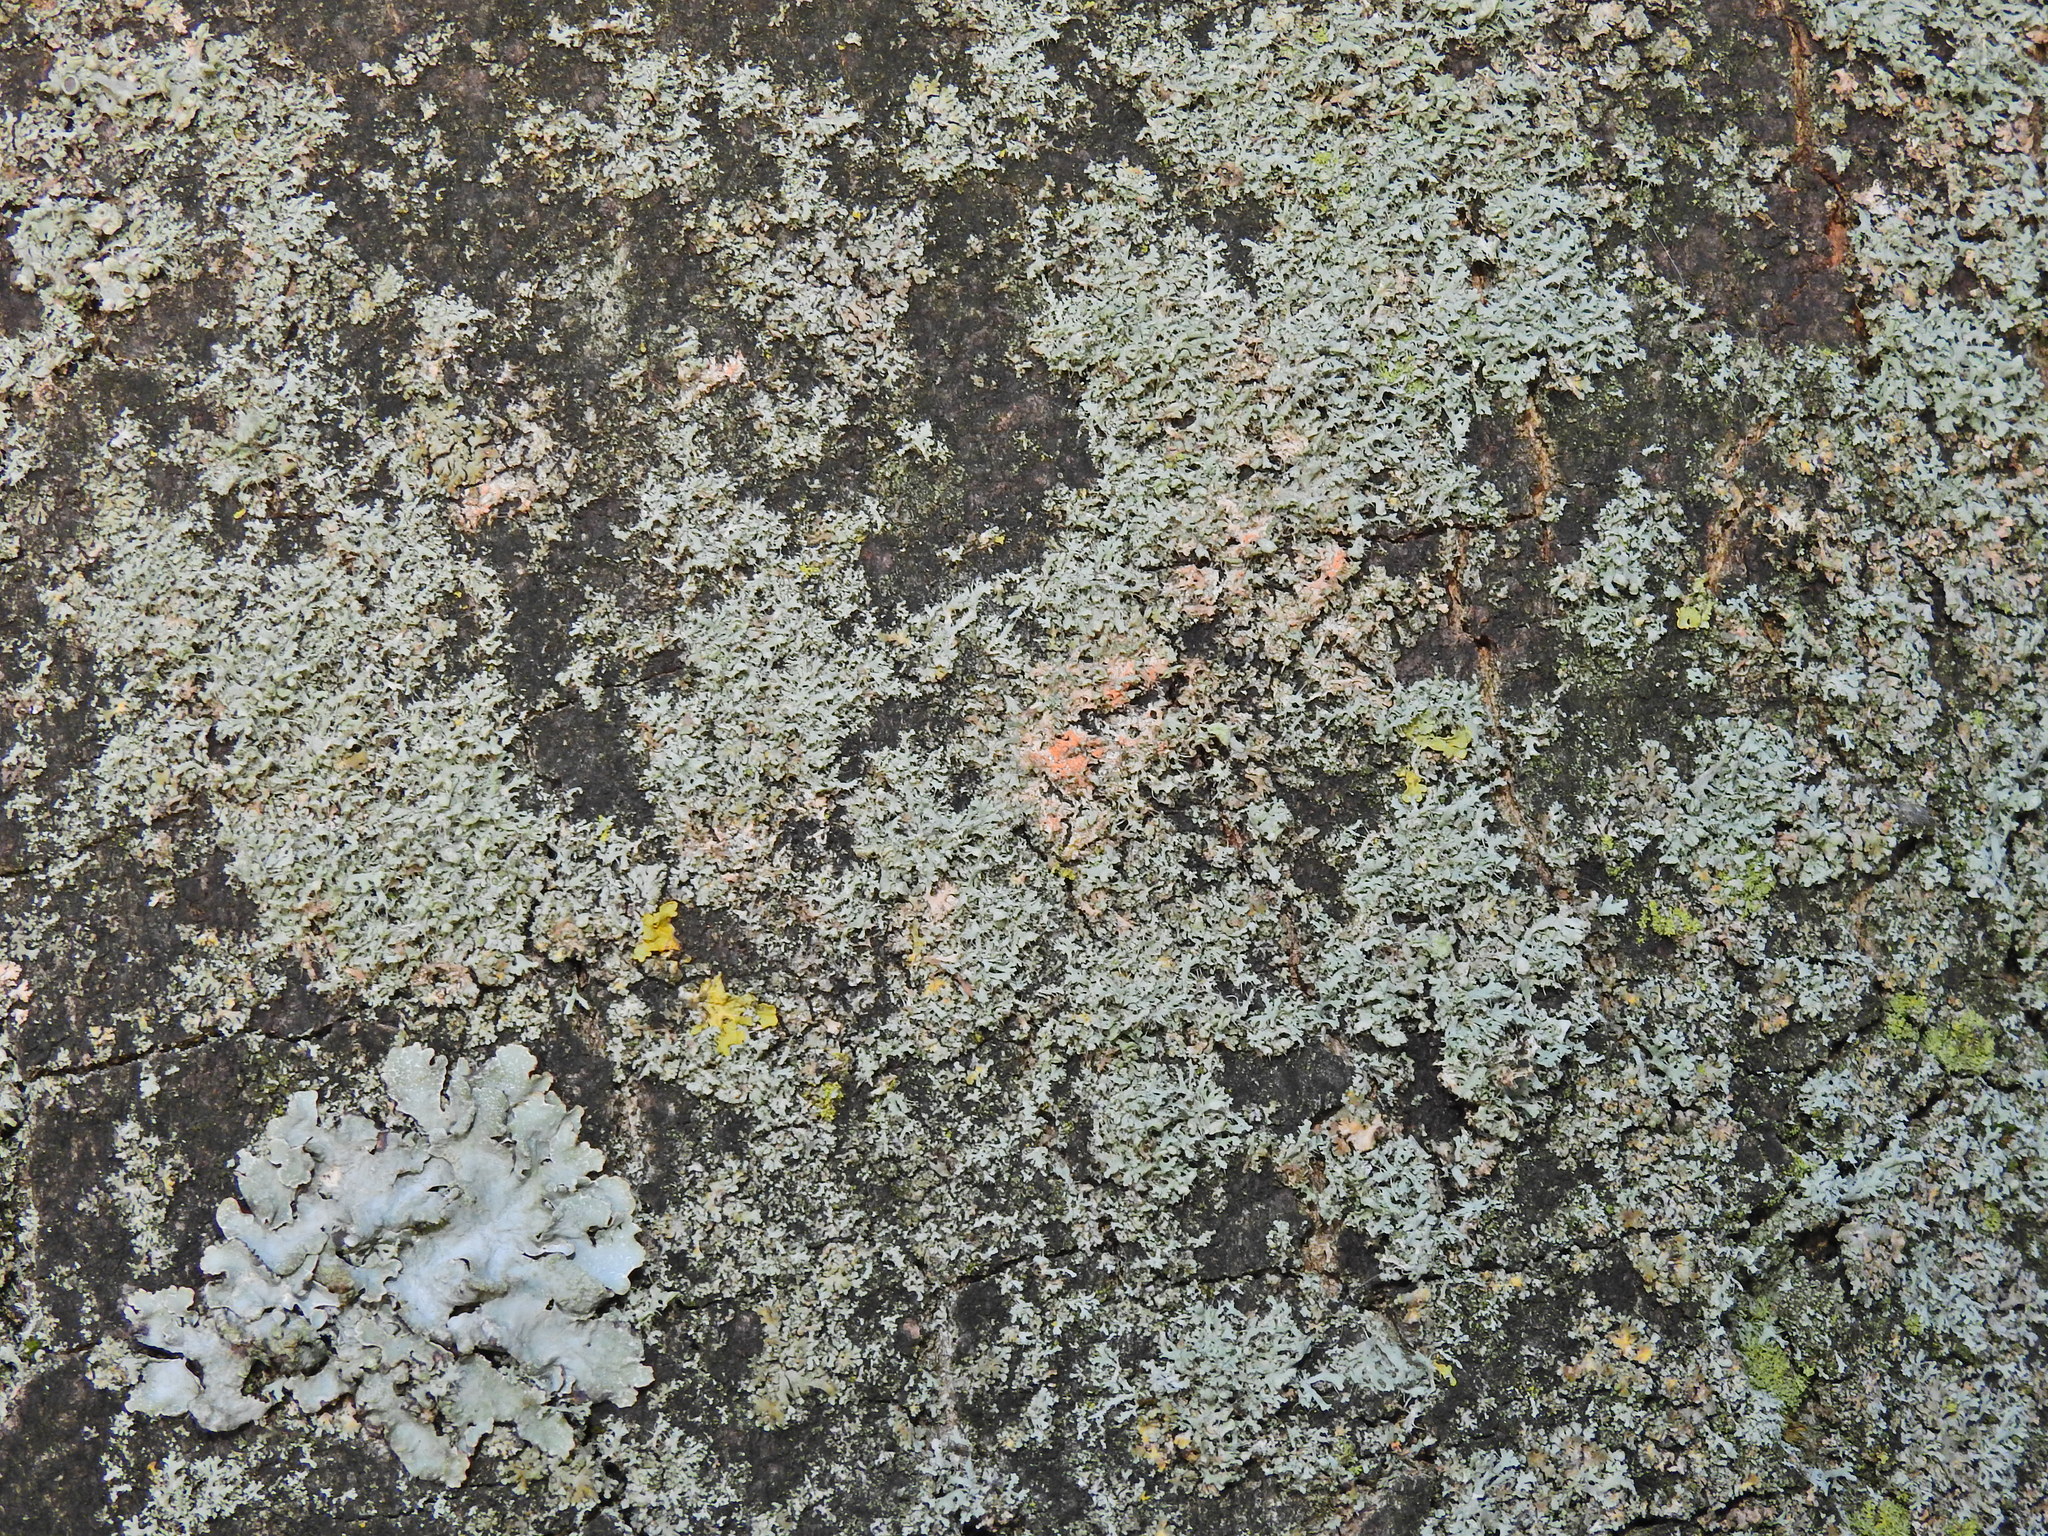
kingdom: Fungi
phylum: Basidiomycota
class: Agaricomycetes
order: Corticiales
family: Corticiaceae
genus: Erythricium
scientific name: Erythricium aurantiacum
